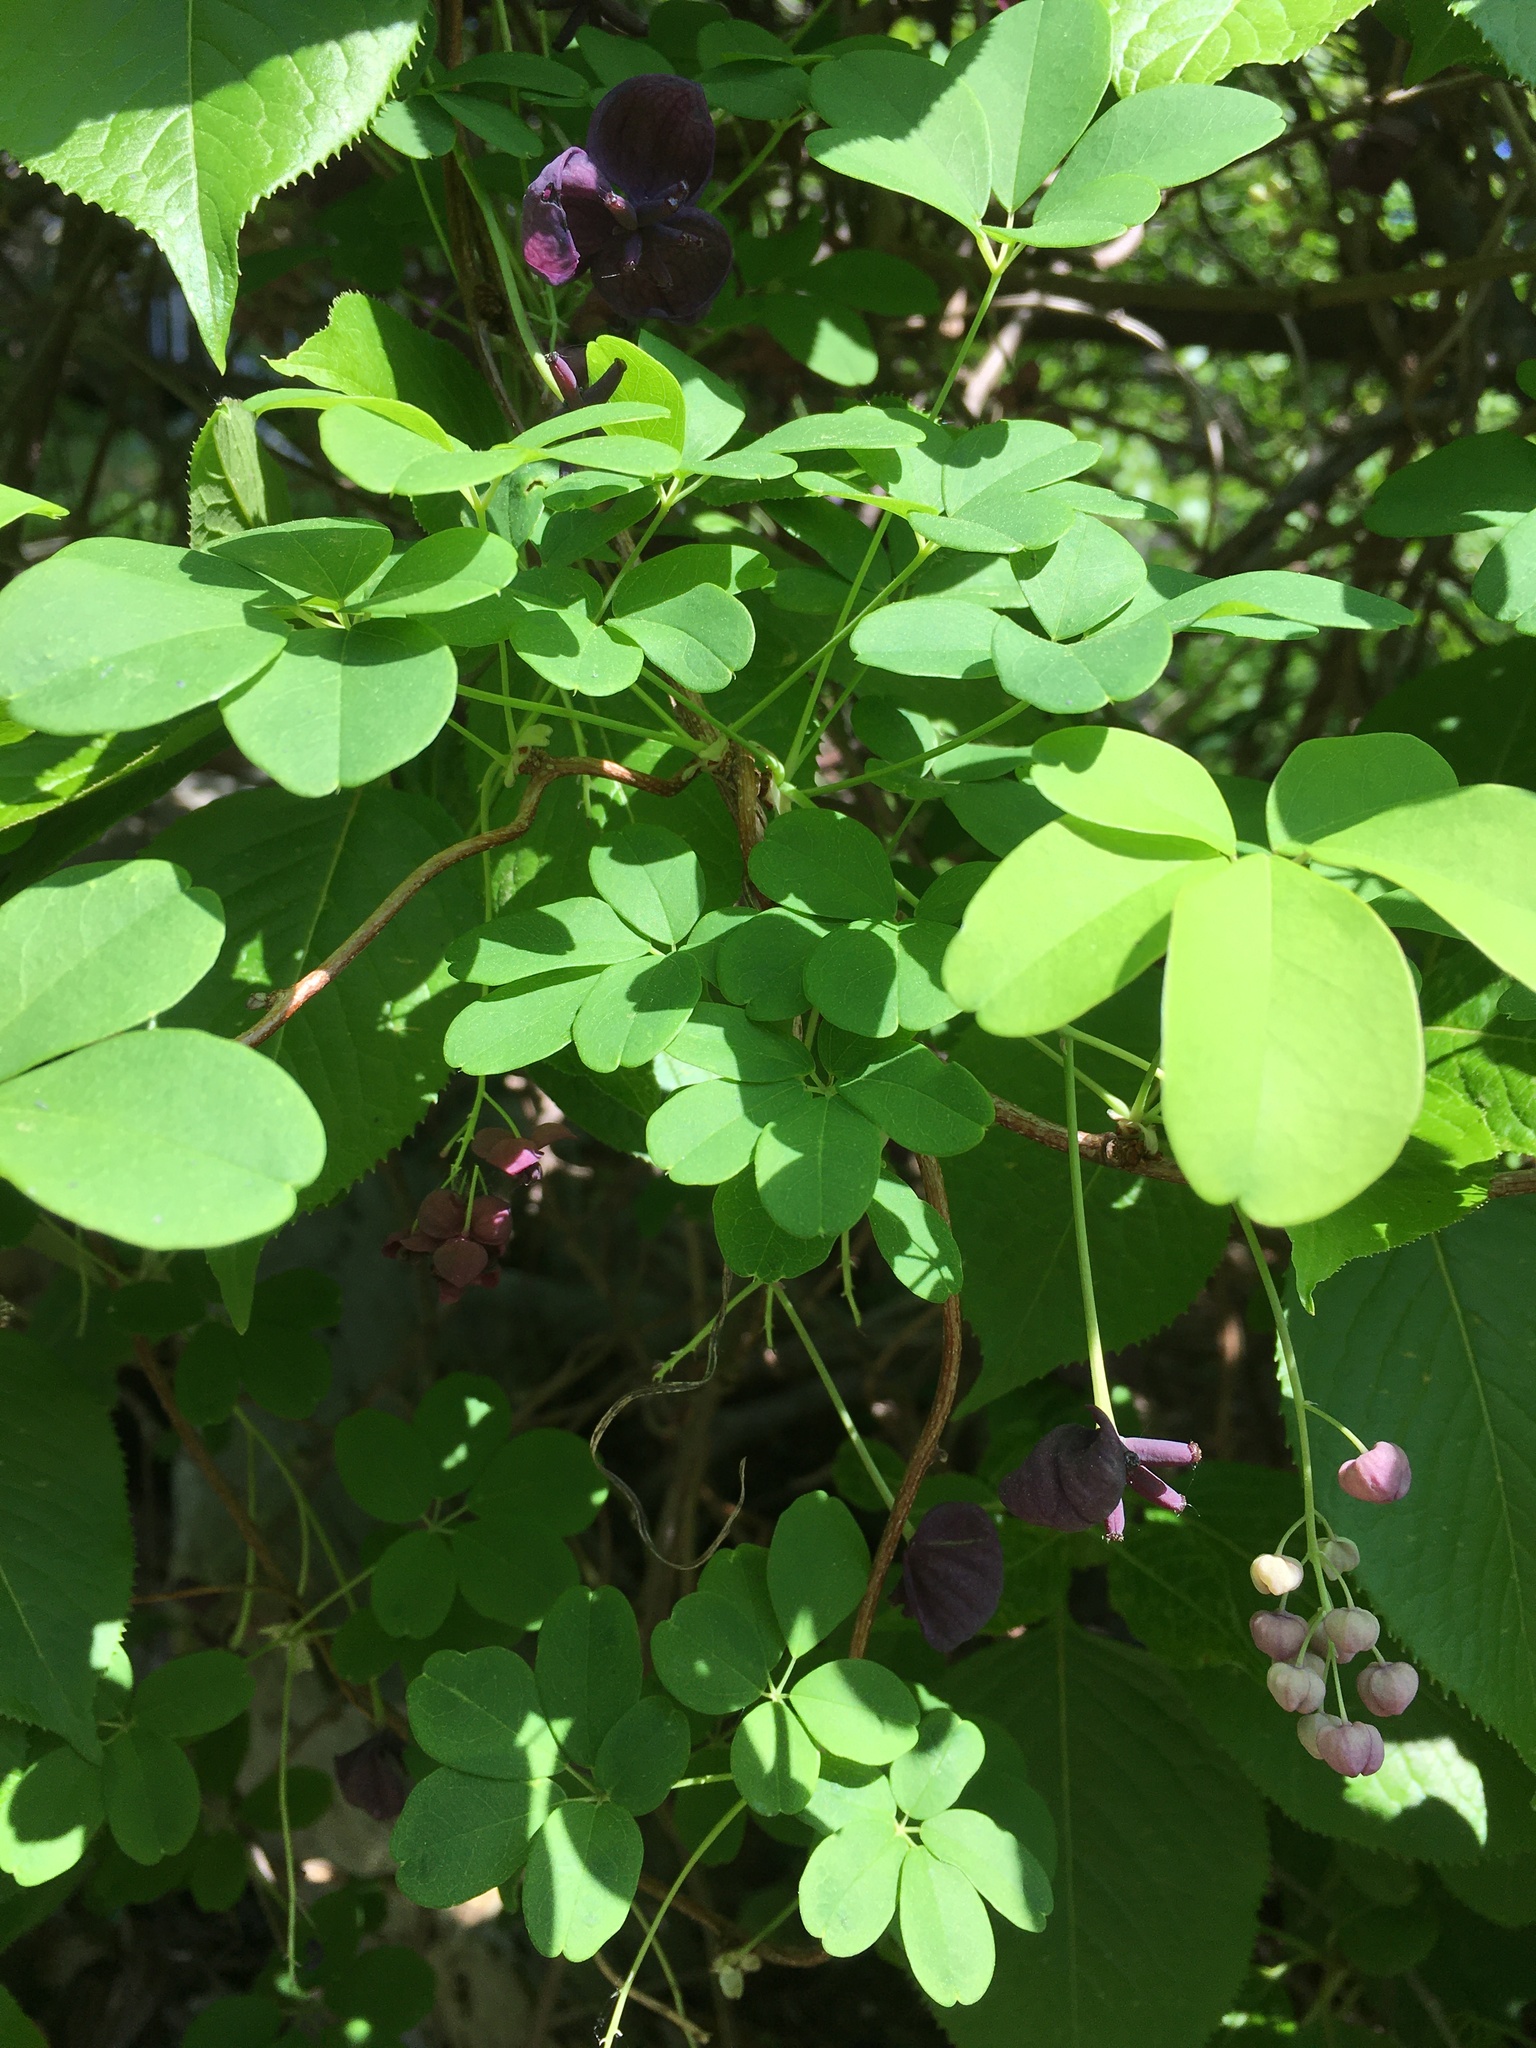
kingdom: Plantae
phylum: Tracheophyta
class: Magnoliopsida
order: Ranunculales
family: Lardizabalaceae
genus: Akebia
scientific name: Akebia quinata
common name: Five-leaf akebia
